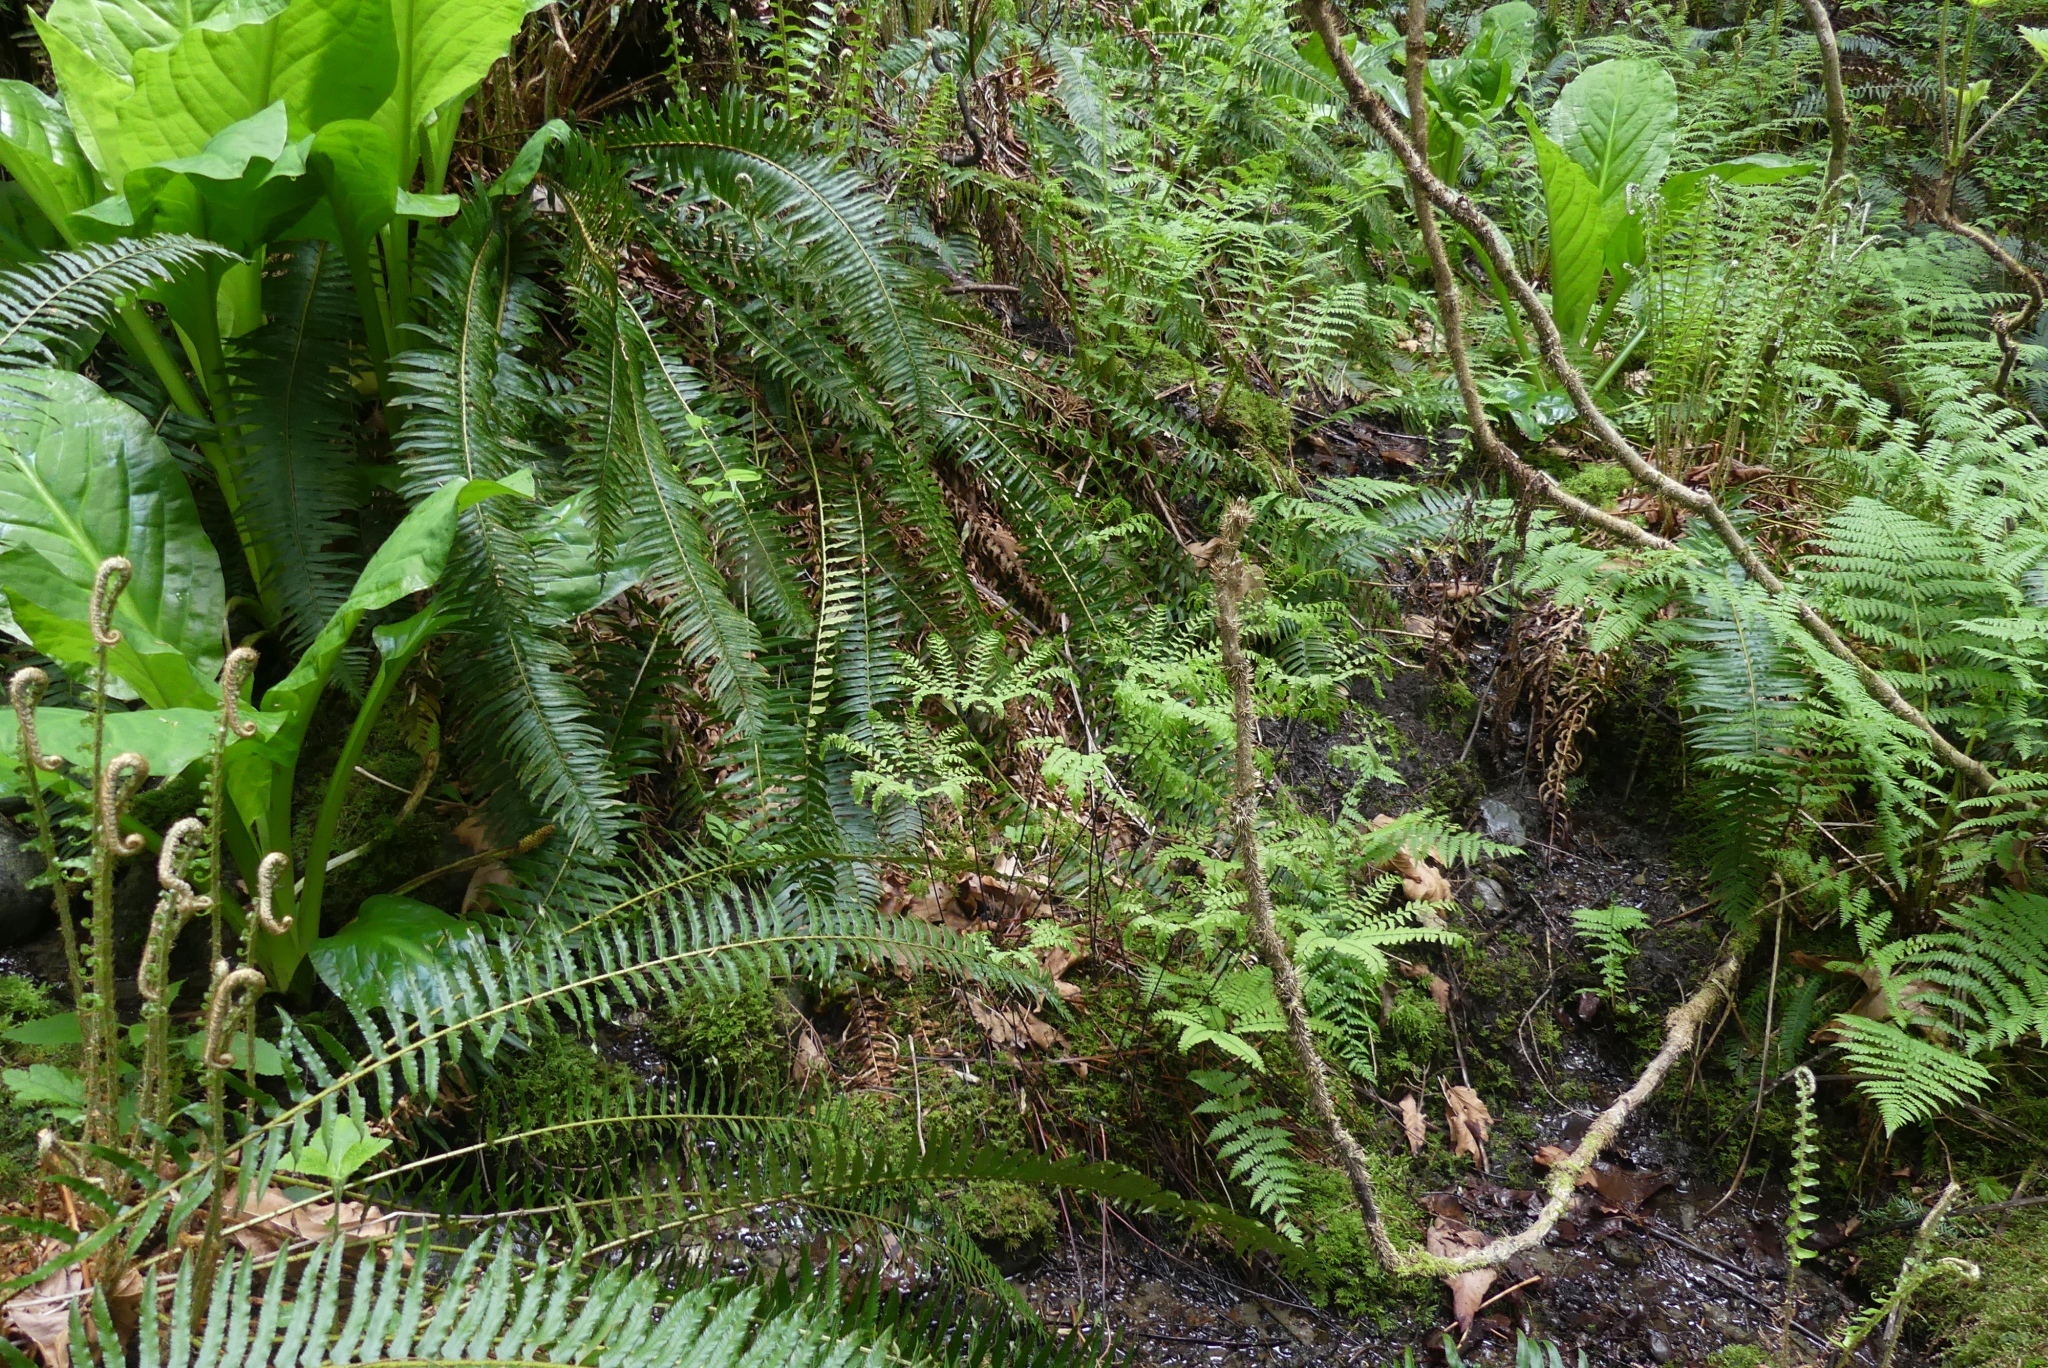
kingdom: Plantae
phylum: Tracheophyta
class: Polypodiopsida
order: Polypodiales
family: Pteridaceae
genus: Adiantum
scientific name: Adiantum aleuticum
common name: Aleutian maidenhair fern
